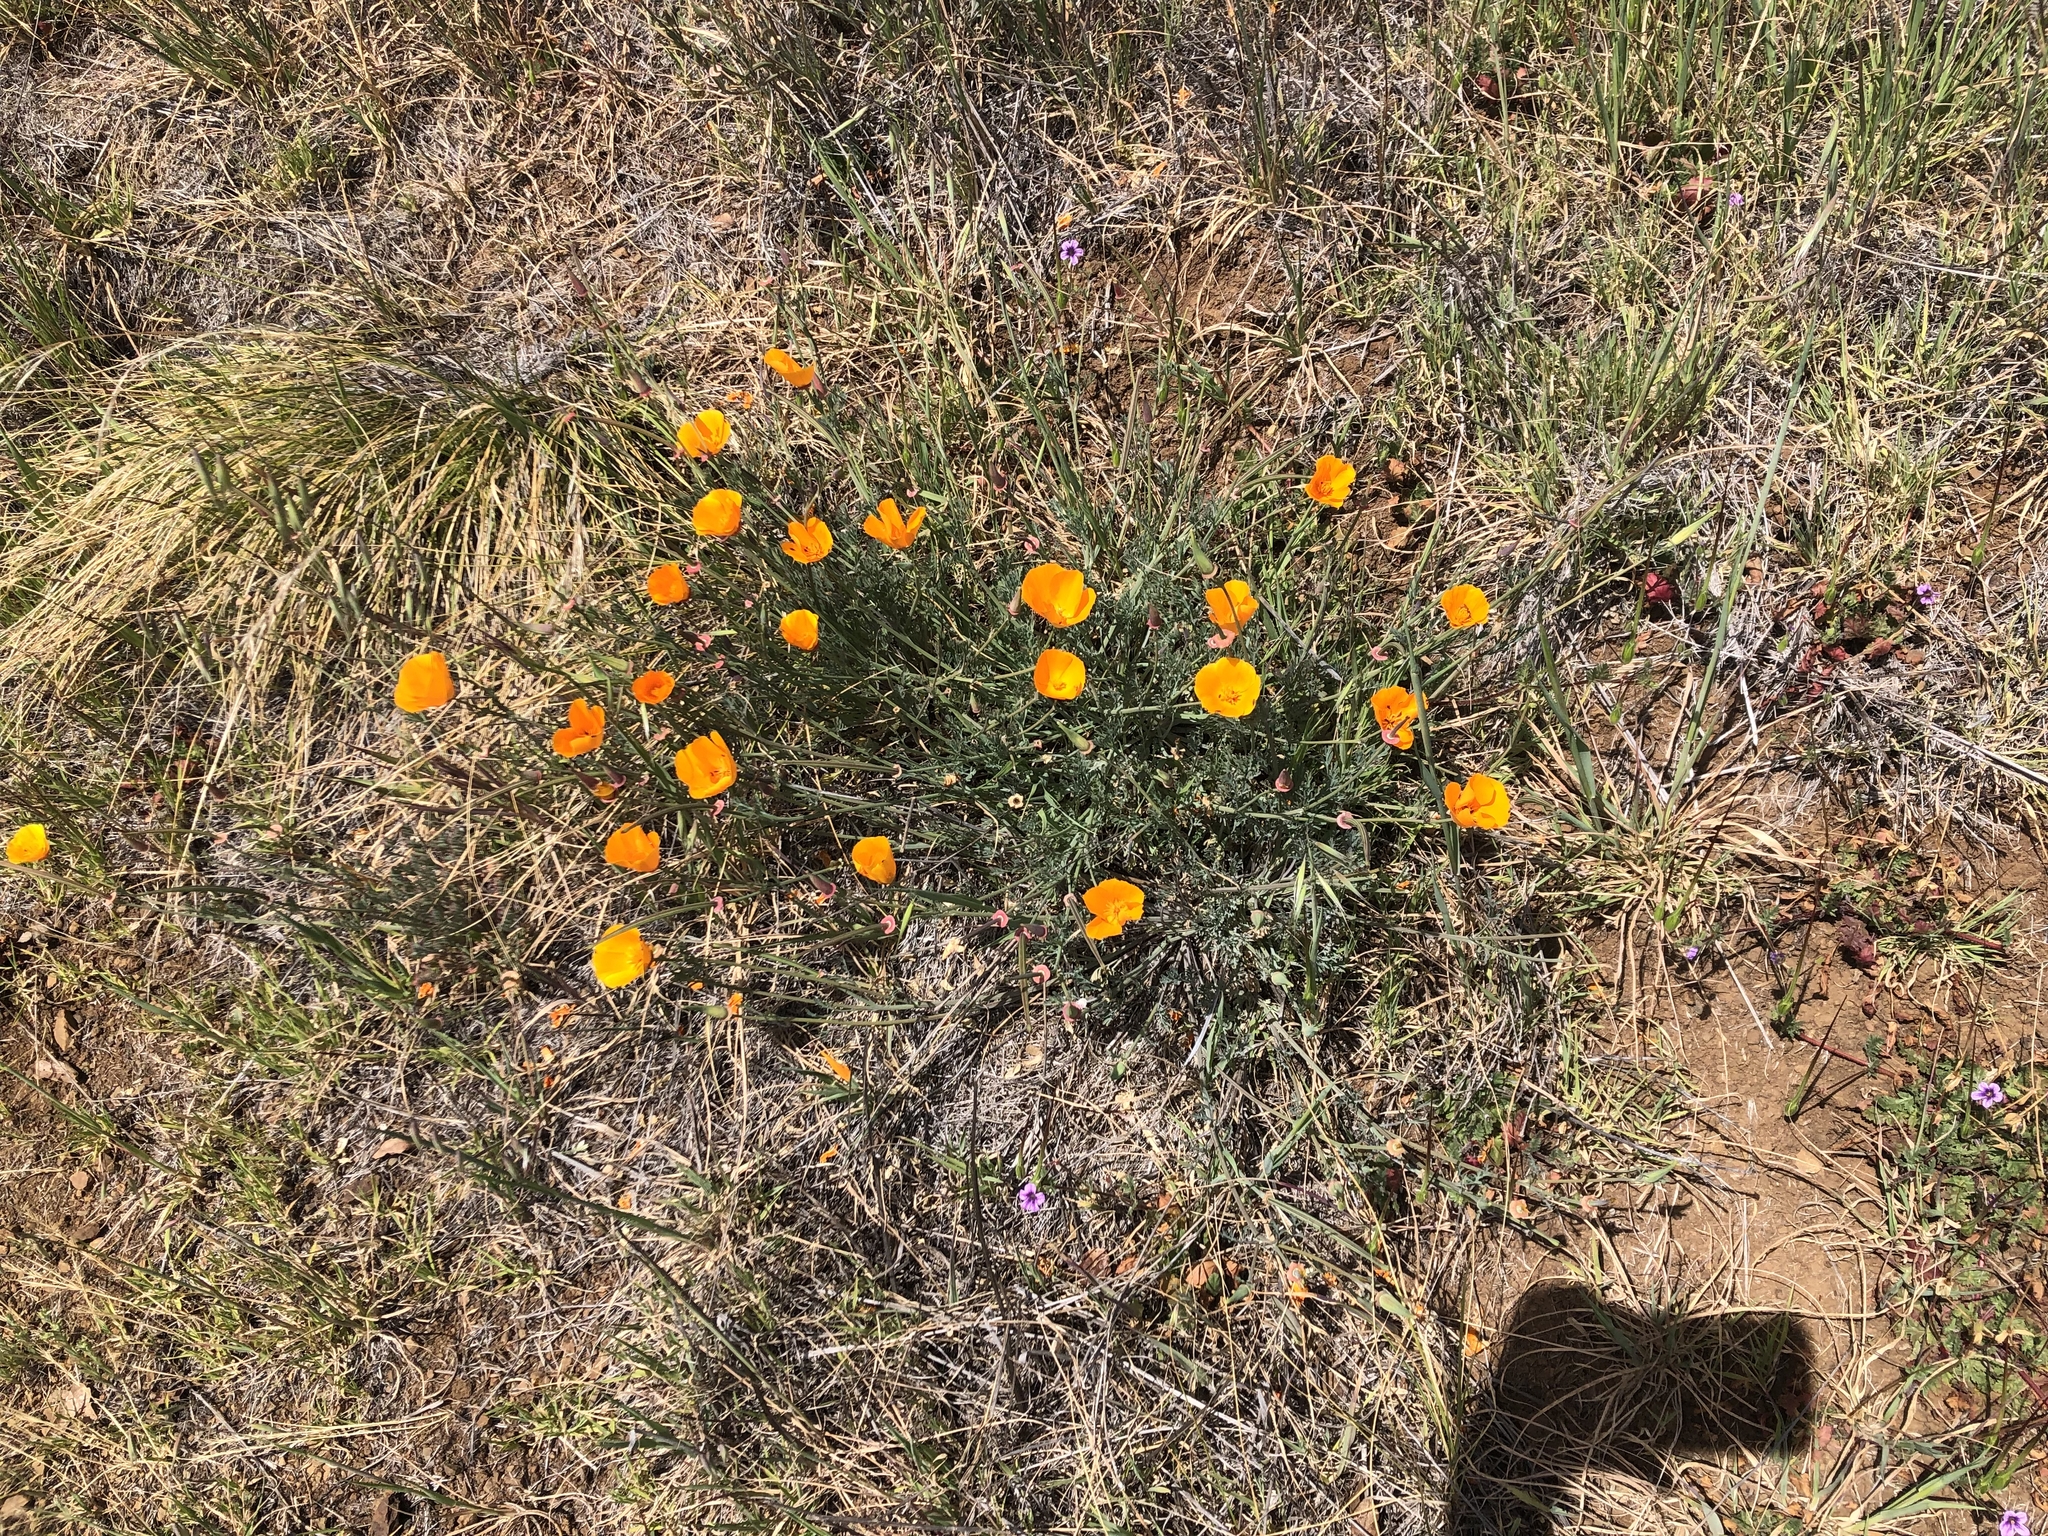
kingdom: Plantae
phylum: Tracheophyta
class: Magnoliopsida
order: Ranunculales
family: Papaveraceae
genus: Eschscholzia
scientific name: Eschscholzia californica
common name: California poppy
